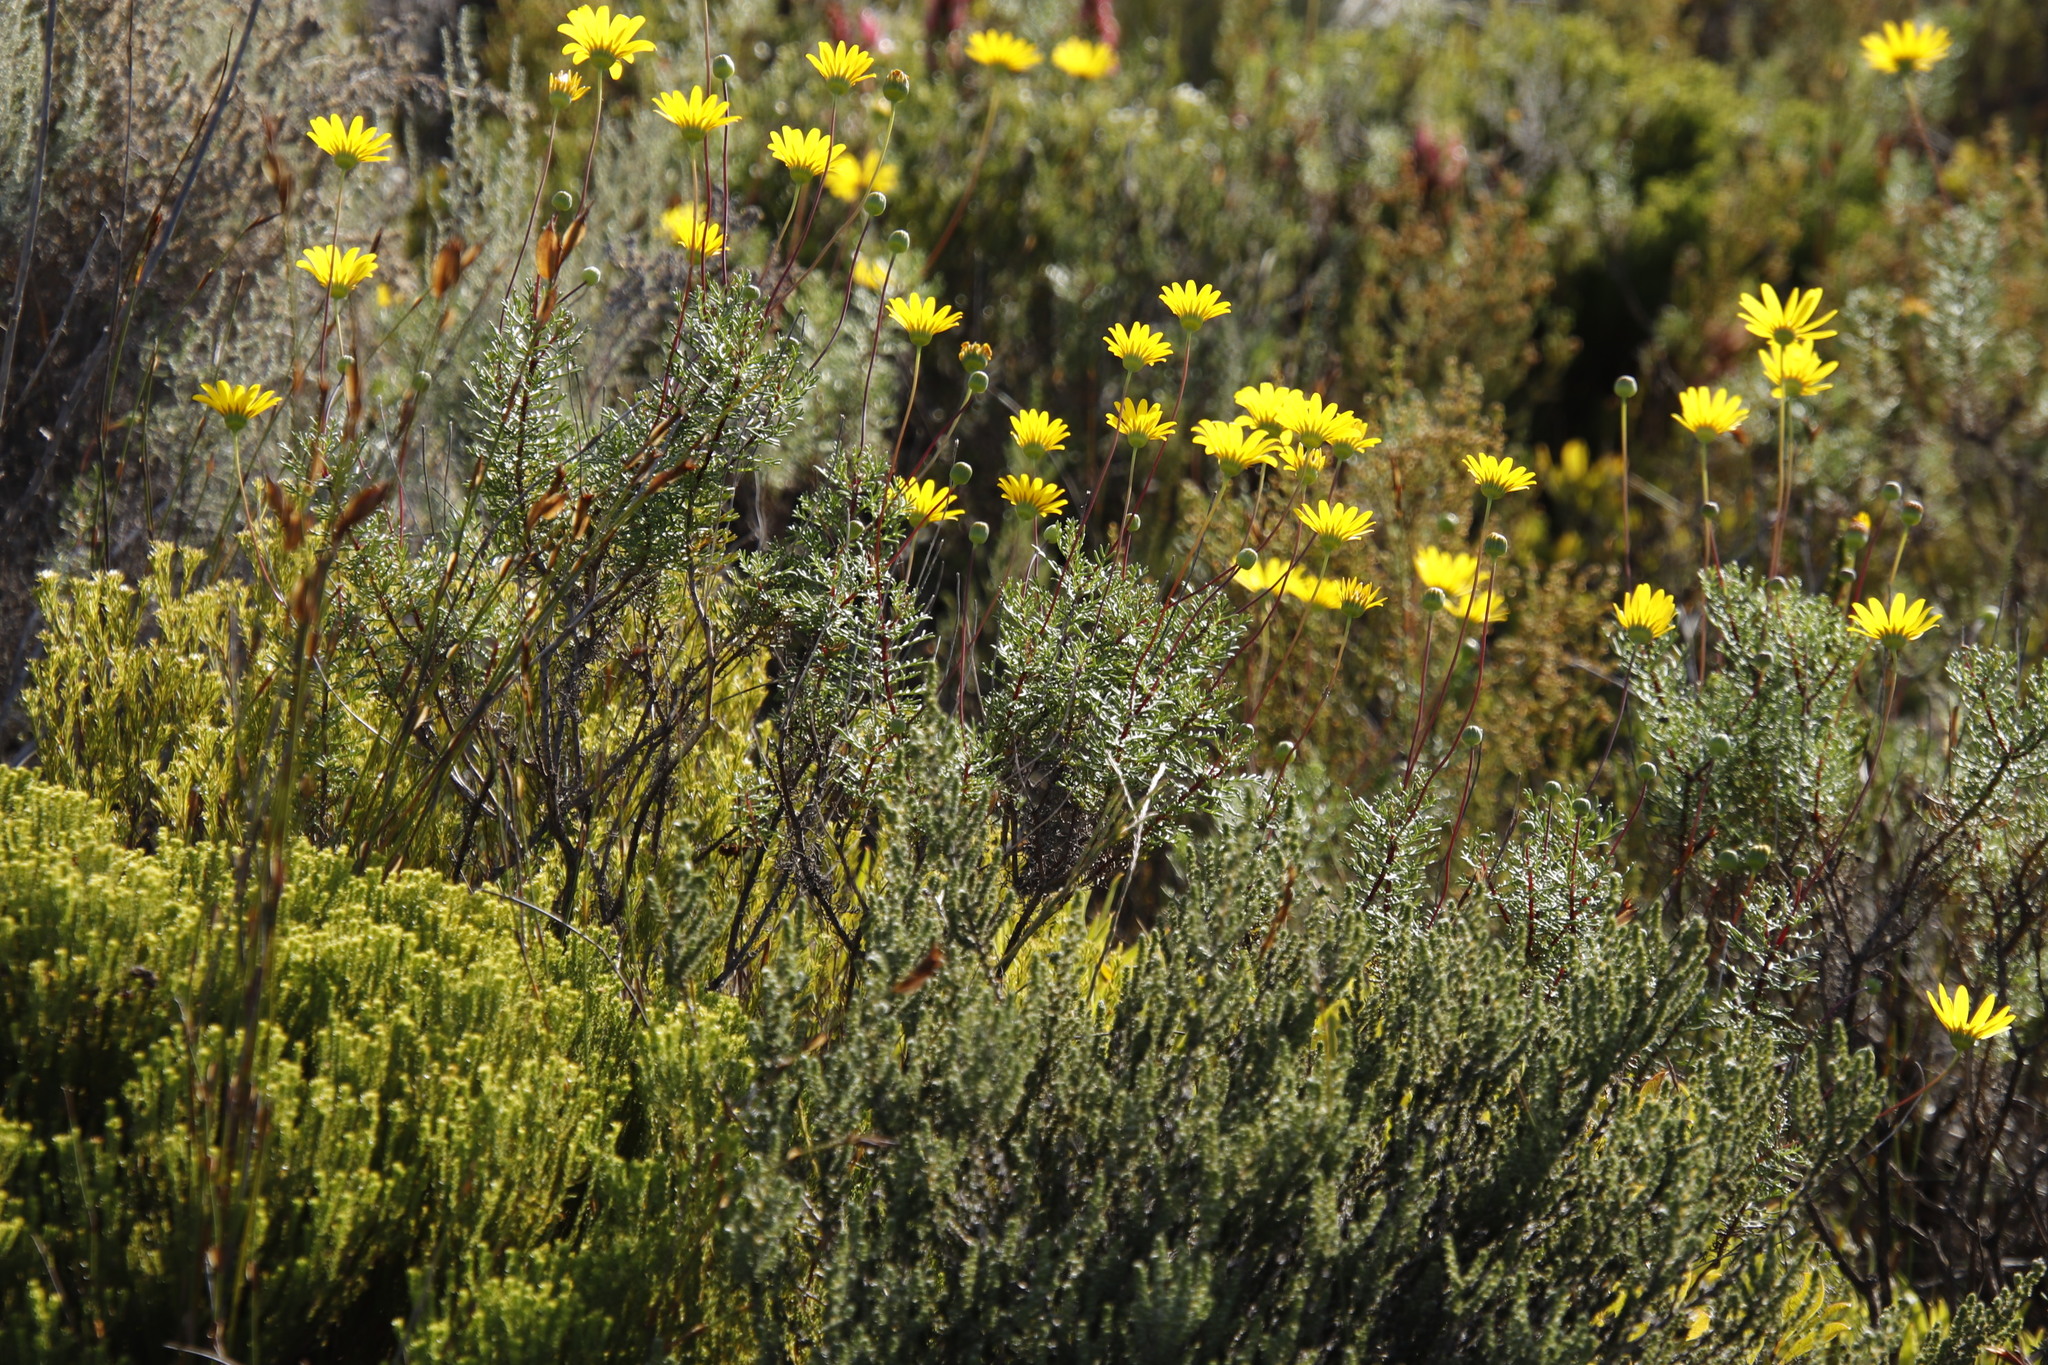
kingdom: Plantae
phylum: Tracheophyta
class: Magnoliopsida
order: Asterales
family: Asteraceae
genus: Euryops
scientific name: Euryops abrotanifolius
